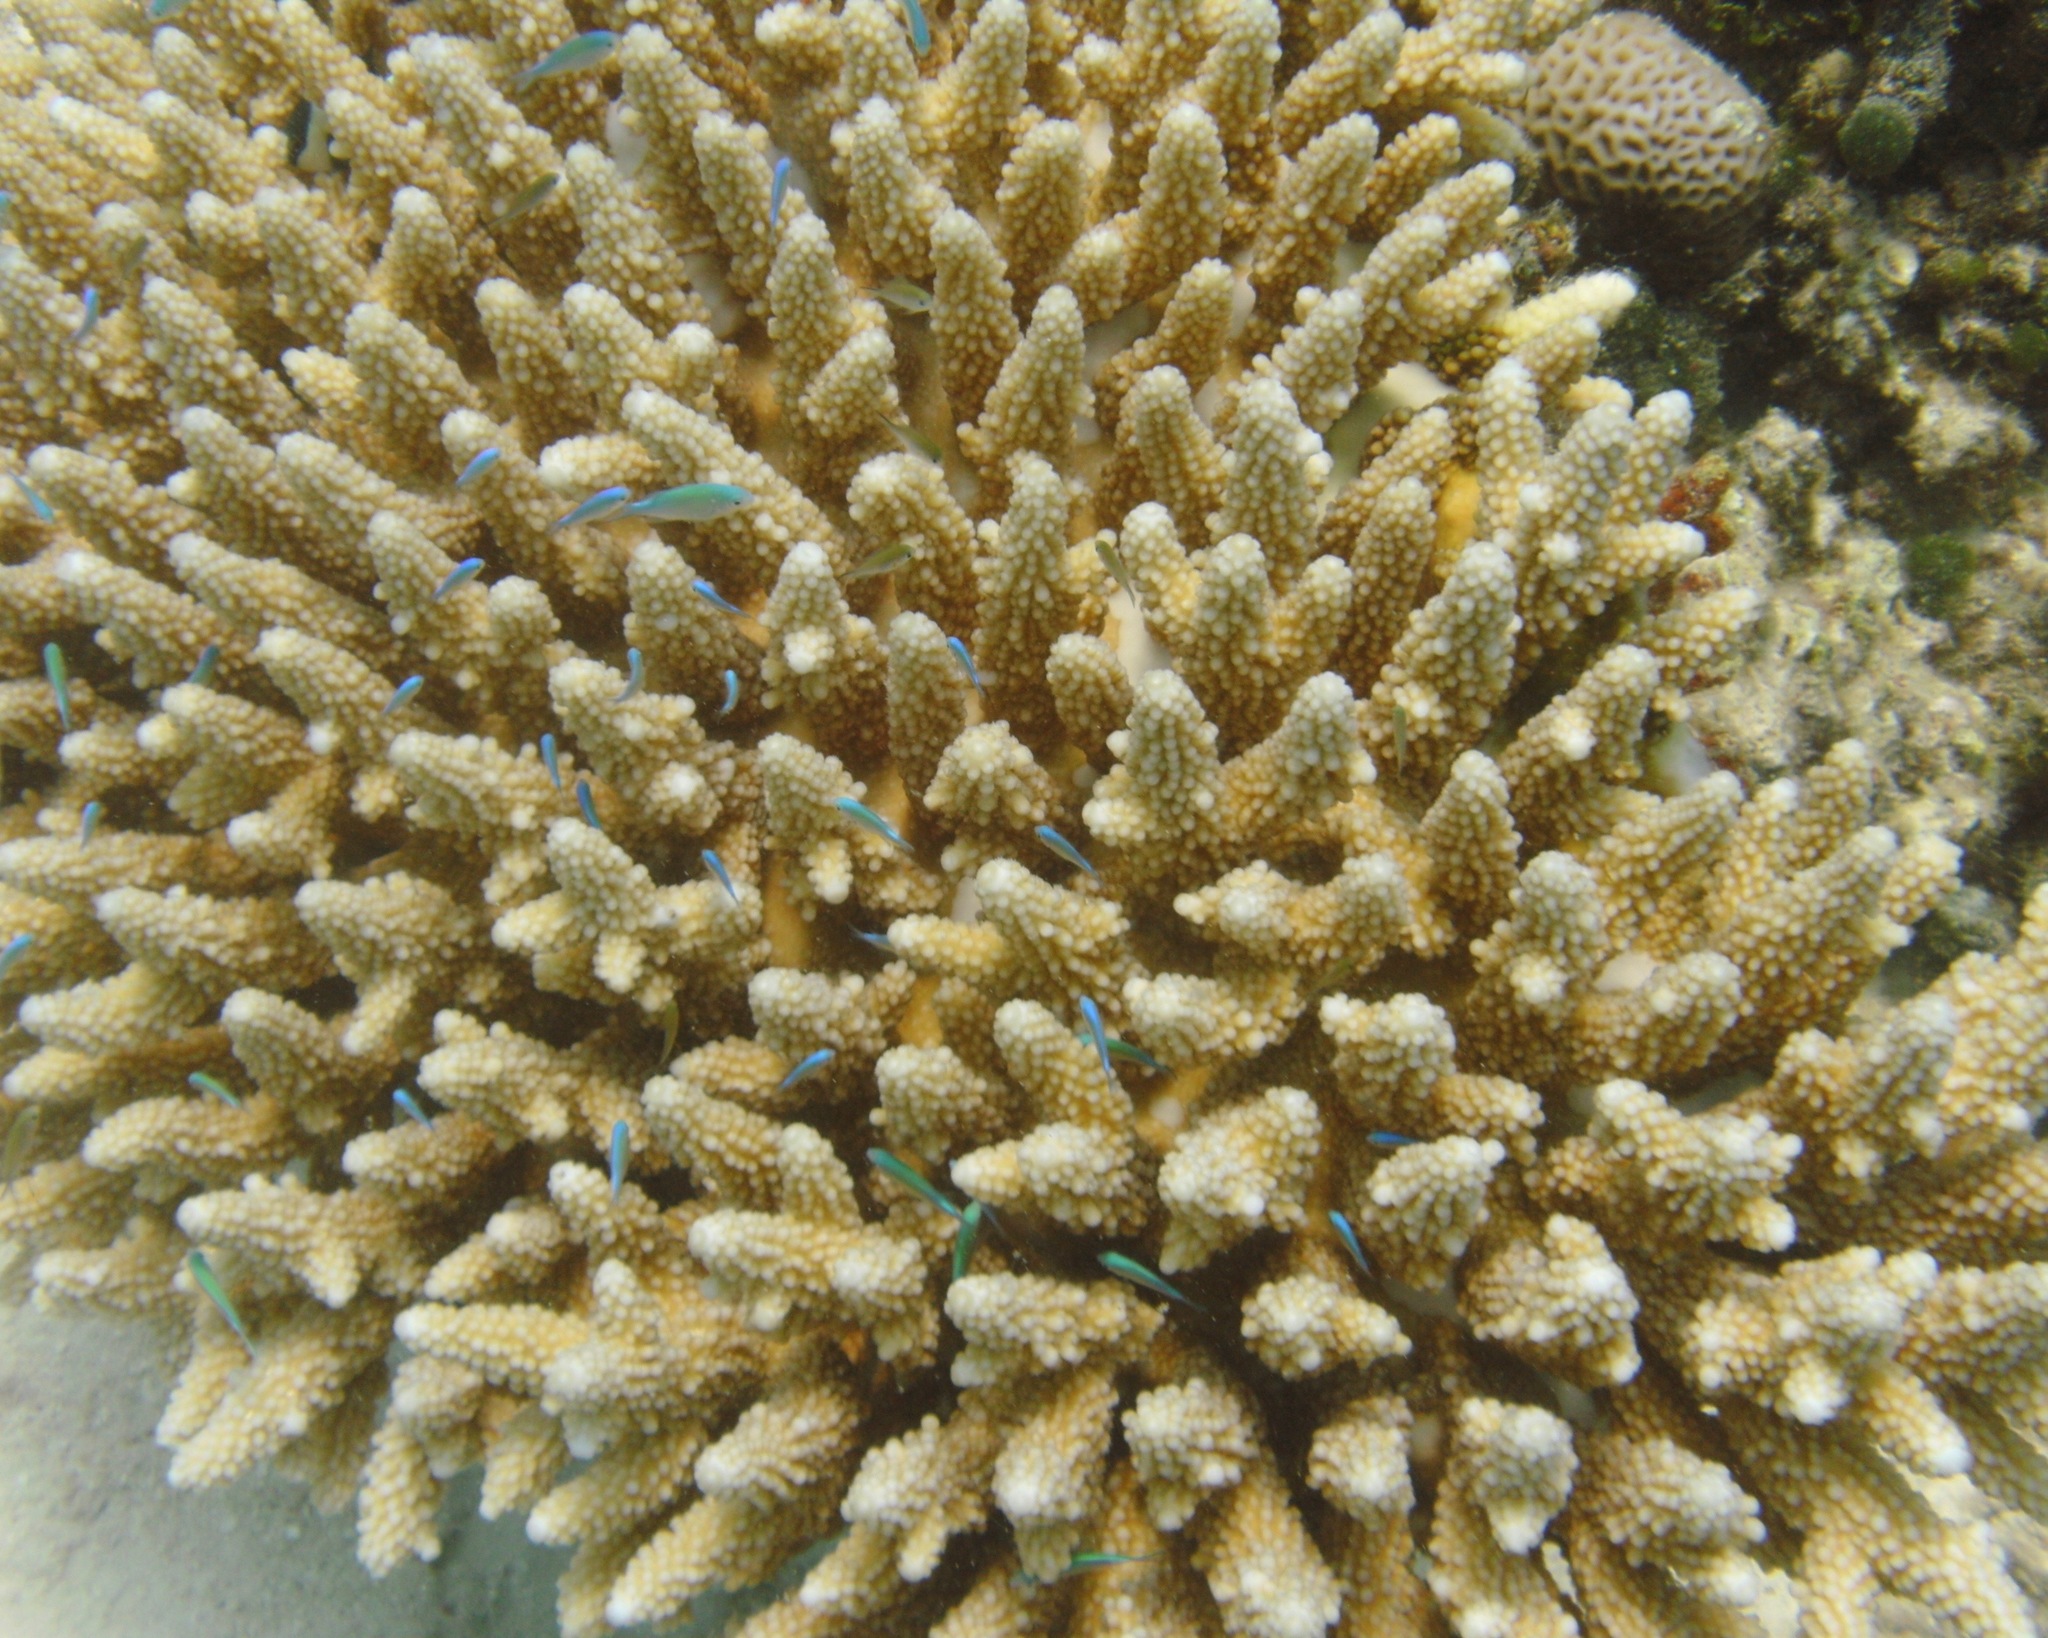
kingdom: Animalia
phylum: Cnidaria
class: Anthozoa
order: Scleractinia
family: Acroporidae
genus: Acropora
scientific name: Acropora gemmifera
